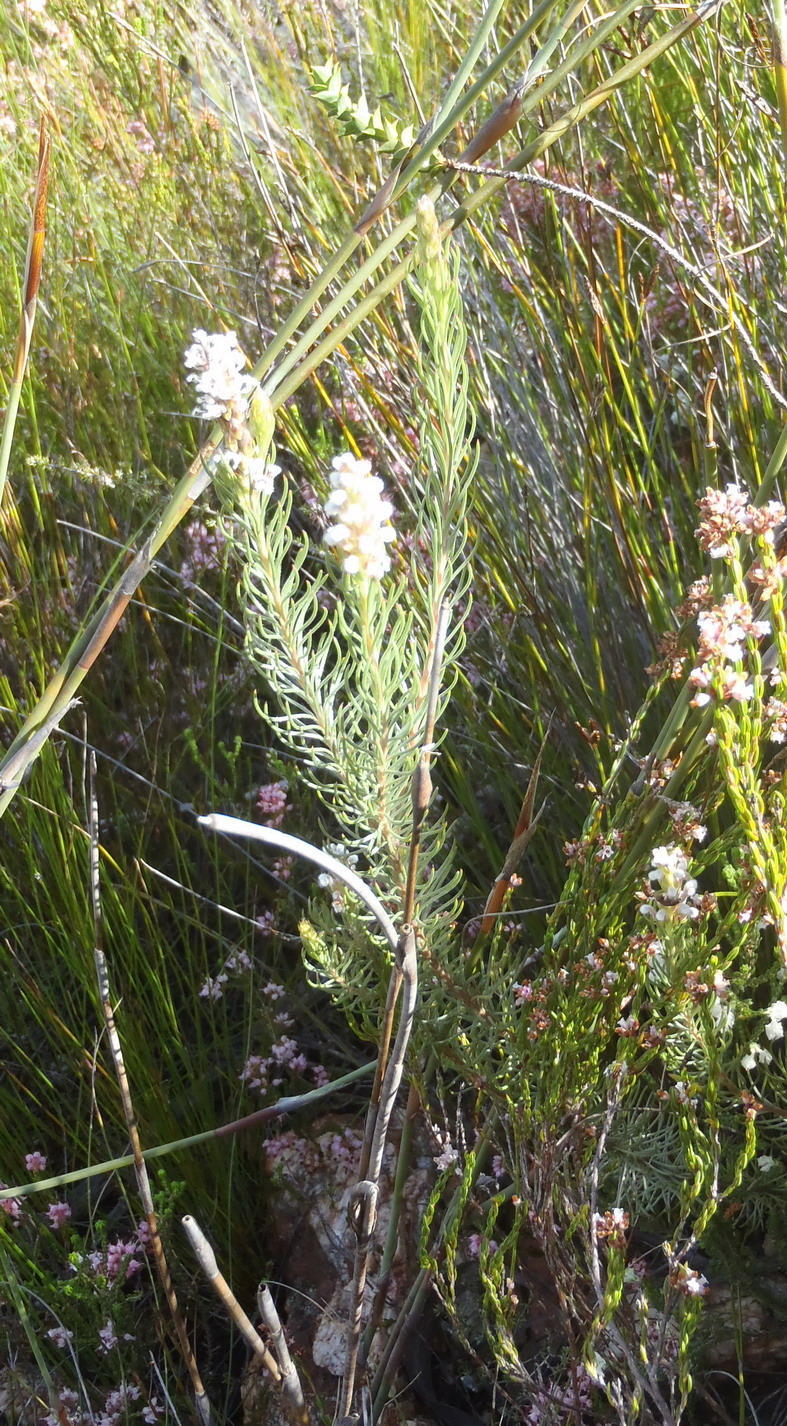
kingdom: Plantae
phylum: Tracheophyta
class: Magnoliopsida
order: Proteales
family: Proteaceae
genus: Spatalla
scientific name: Spatalla barbigera
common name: Fine-leaf spoon
